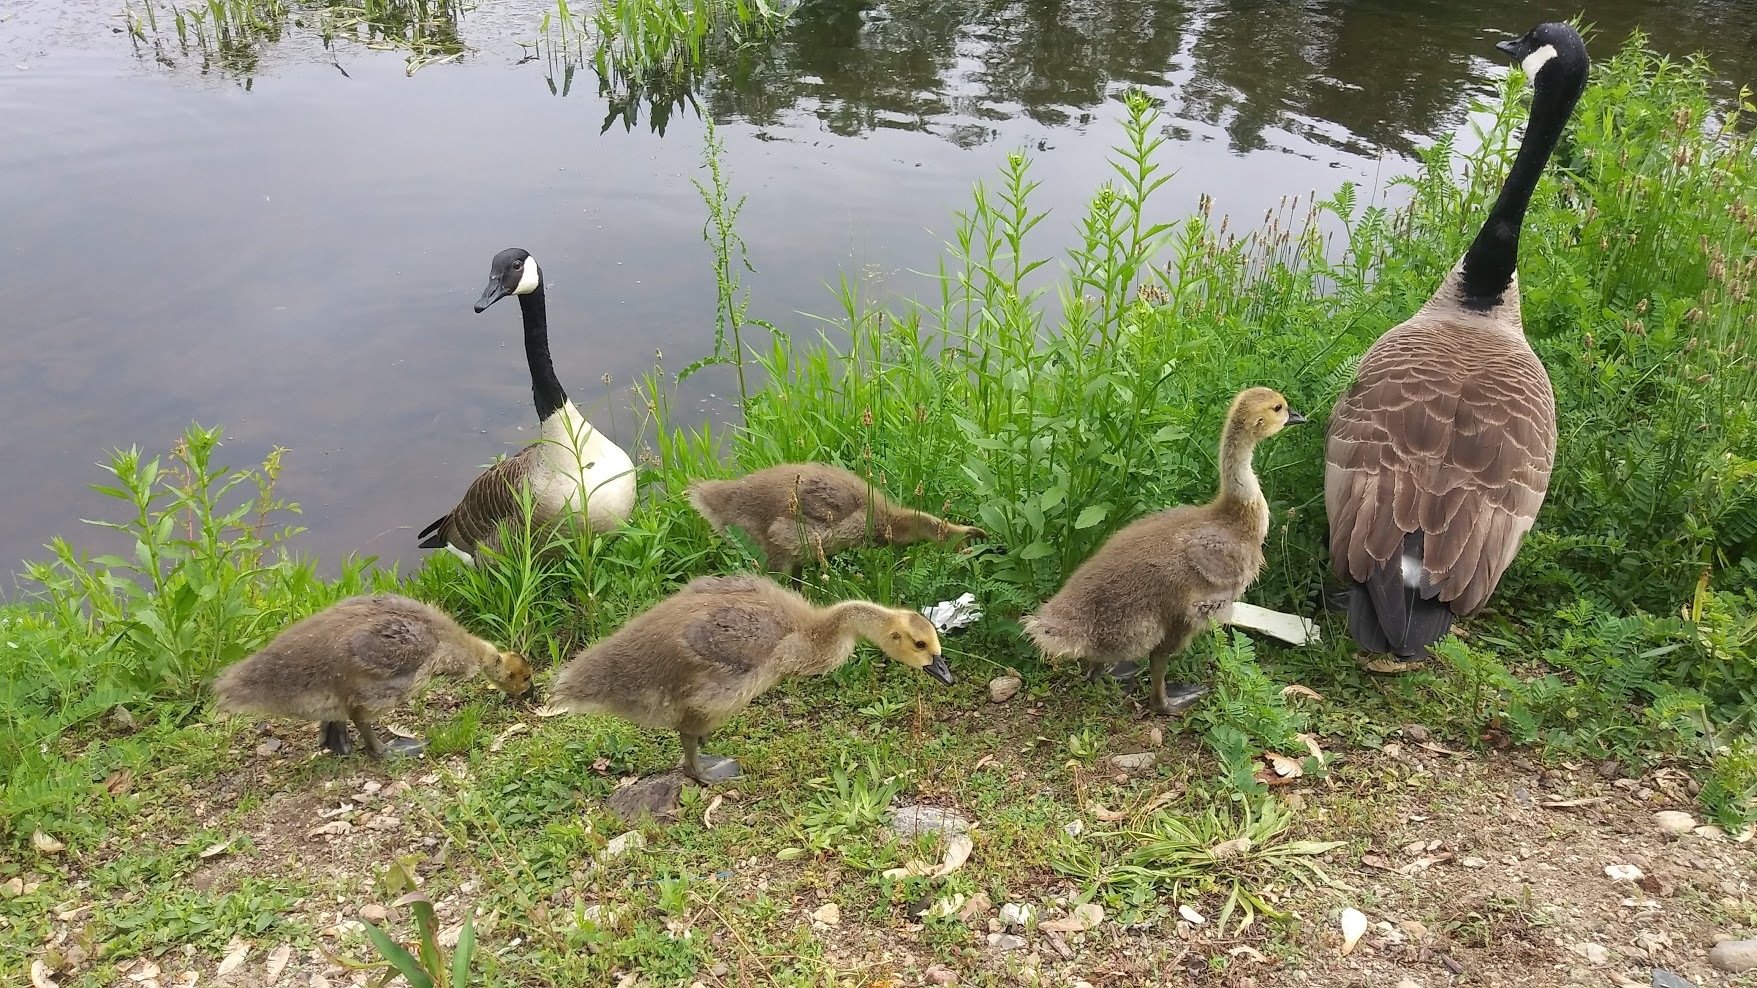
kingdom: Animalia
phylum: Chordata
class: Aves
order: Anseriformes
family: Anatidae
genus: Branta
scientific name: Branta canadensis
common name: Canada goose
